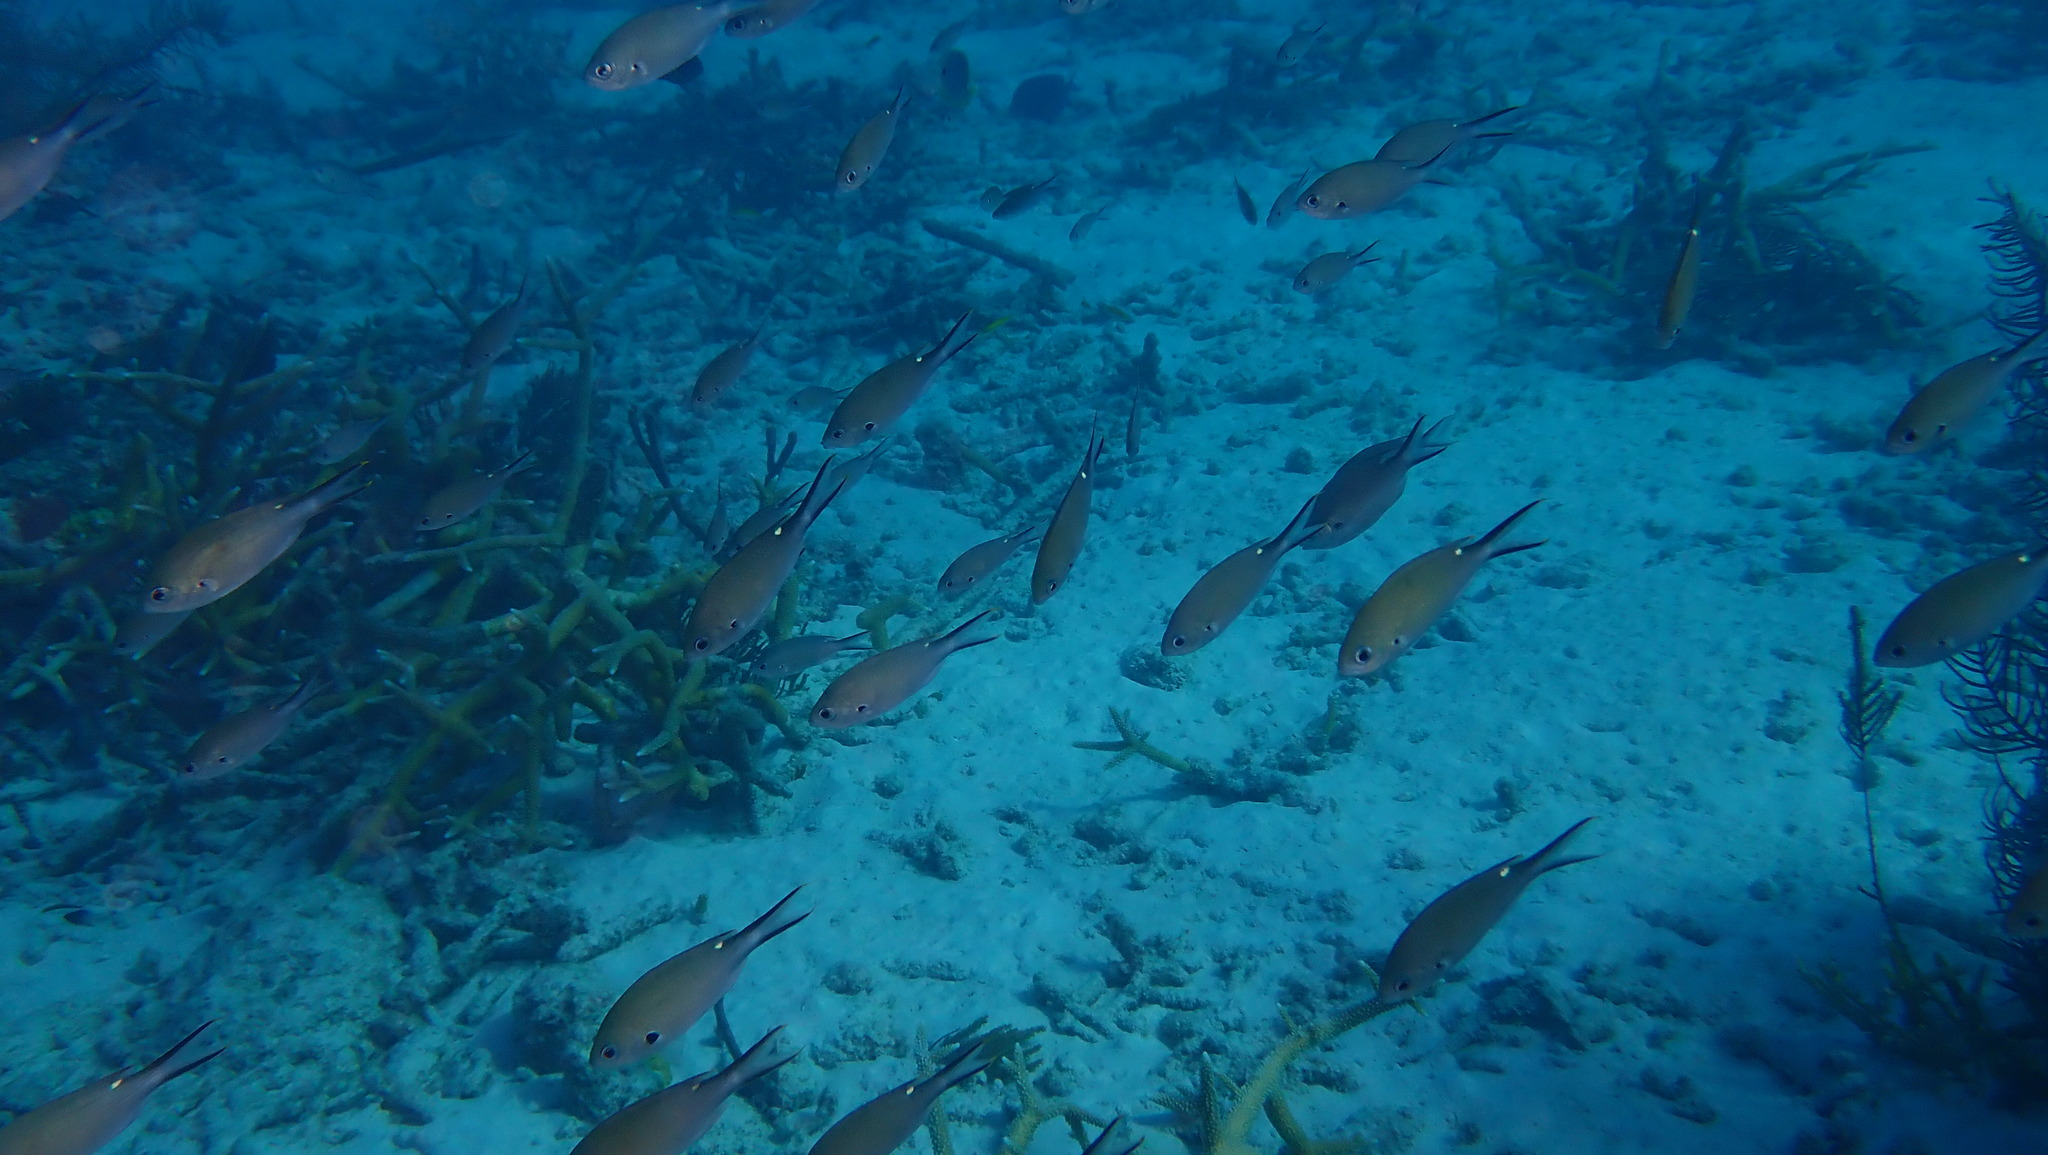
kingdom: Animalia
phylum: Chordata
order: Perciformes
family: Pomacentridae
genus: Chromis
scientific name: Chromis multilineata
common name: Brown chromis
